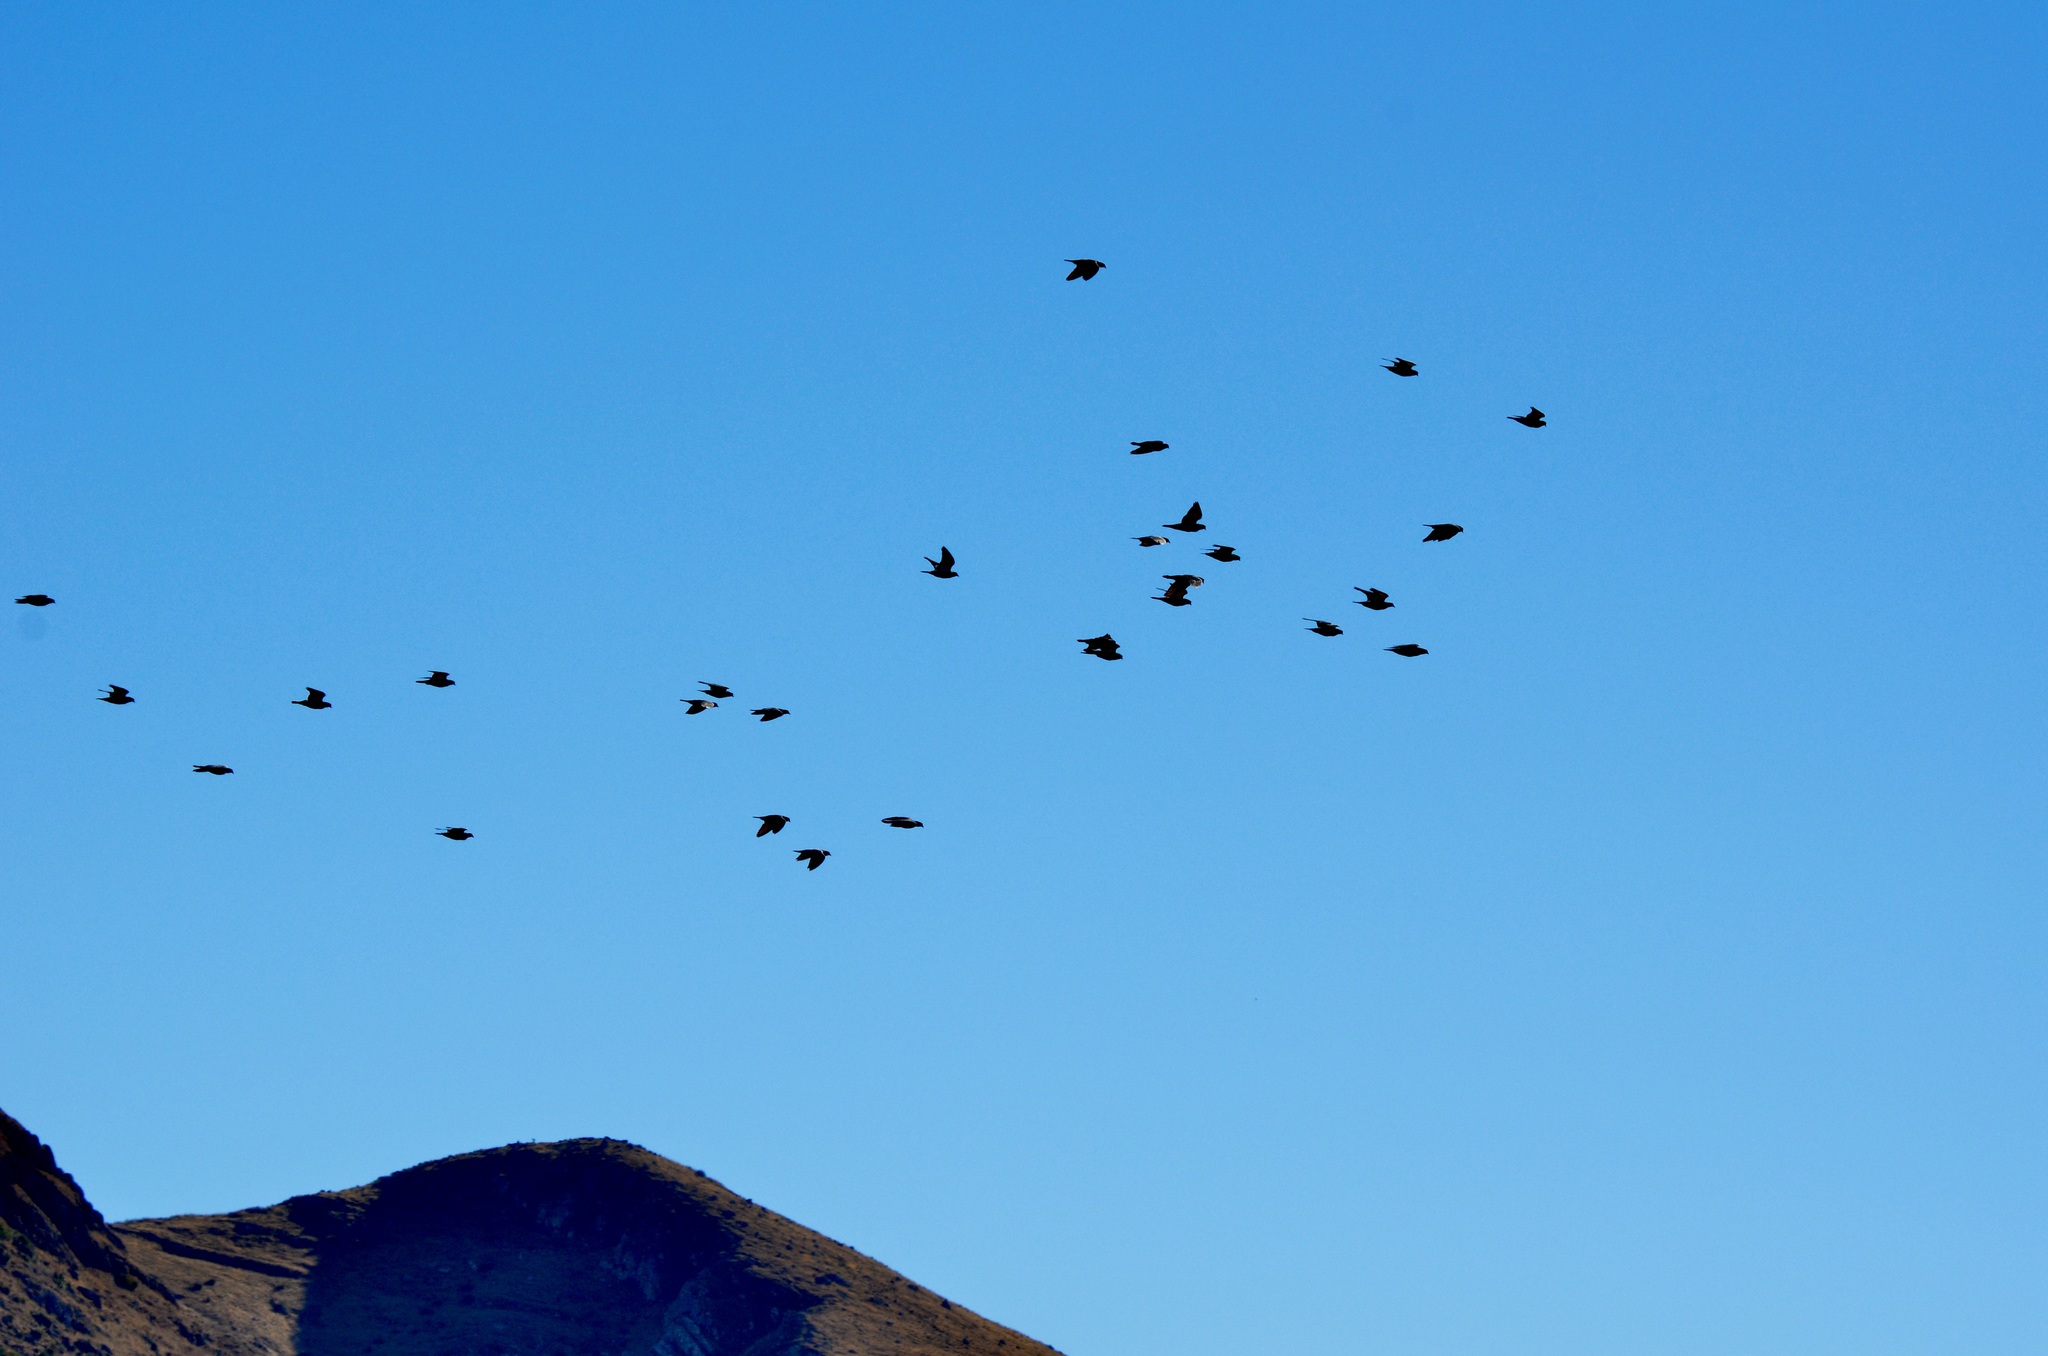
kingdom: Animalia
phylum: Chordata
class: Aves
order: Columbiformes
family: Columbidae
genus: Columba
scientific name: Columba livia
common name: Rock pigeon
